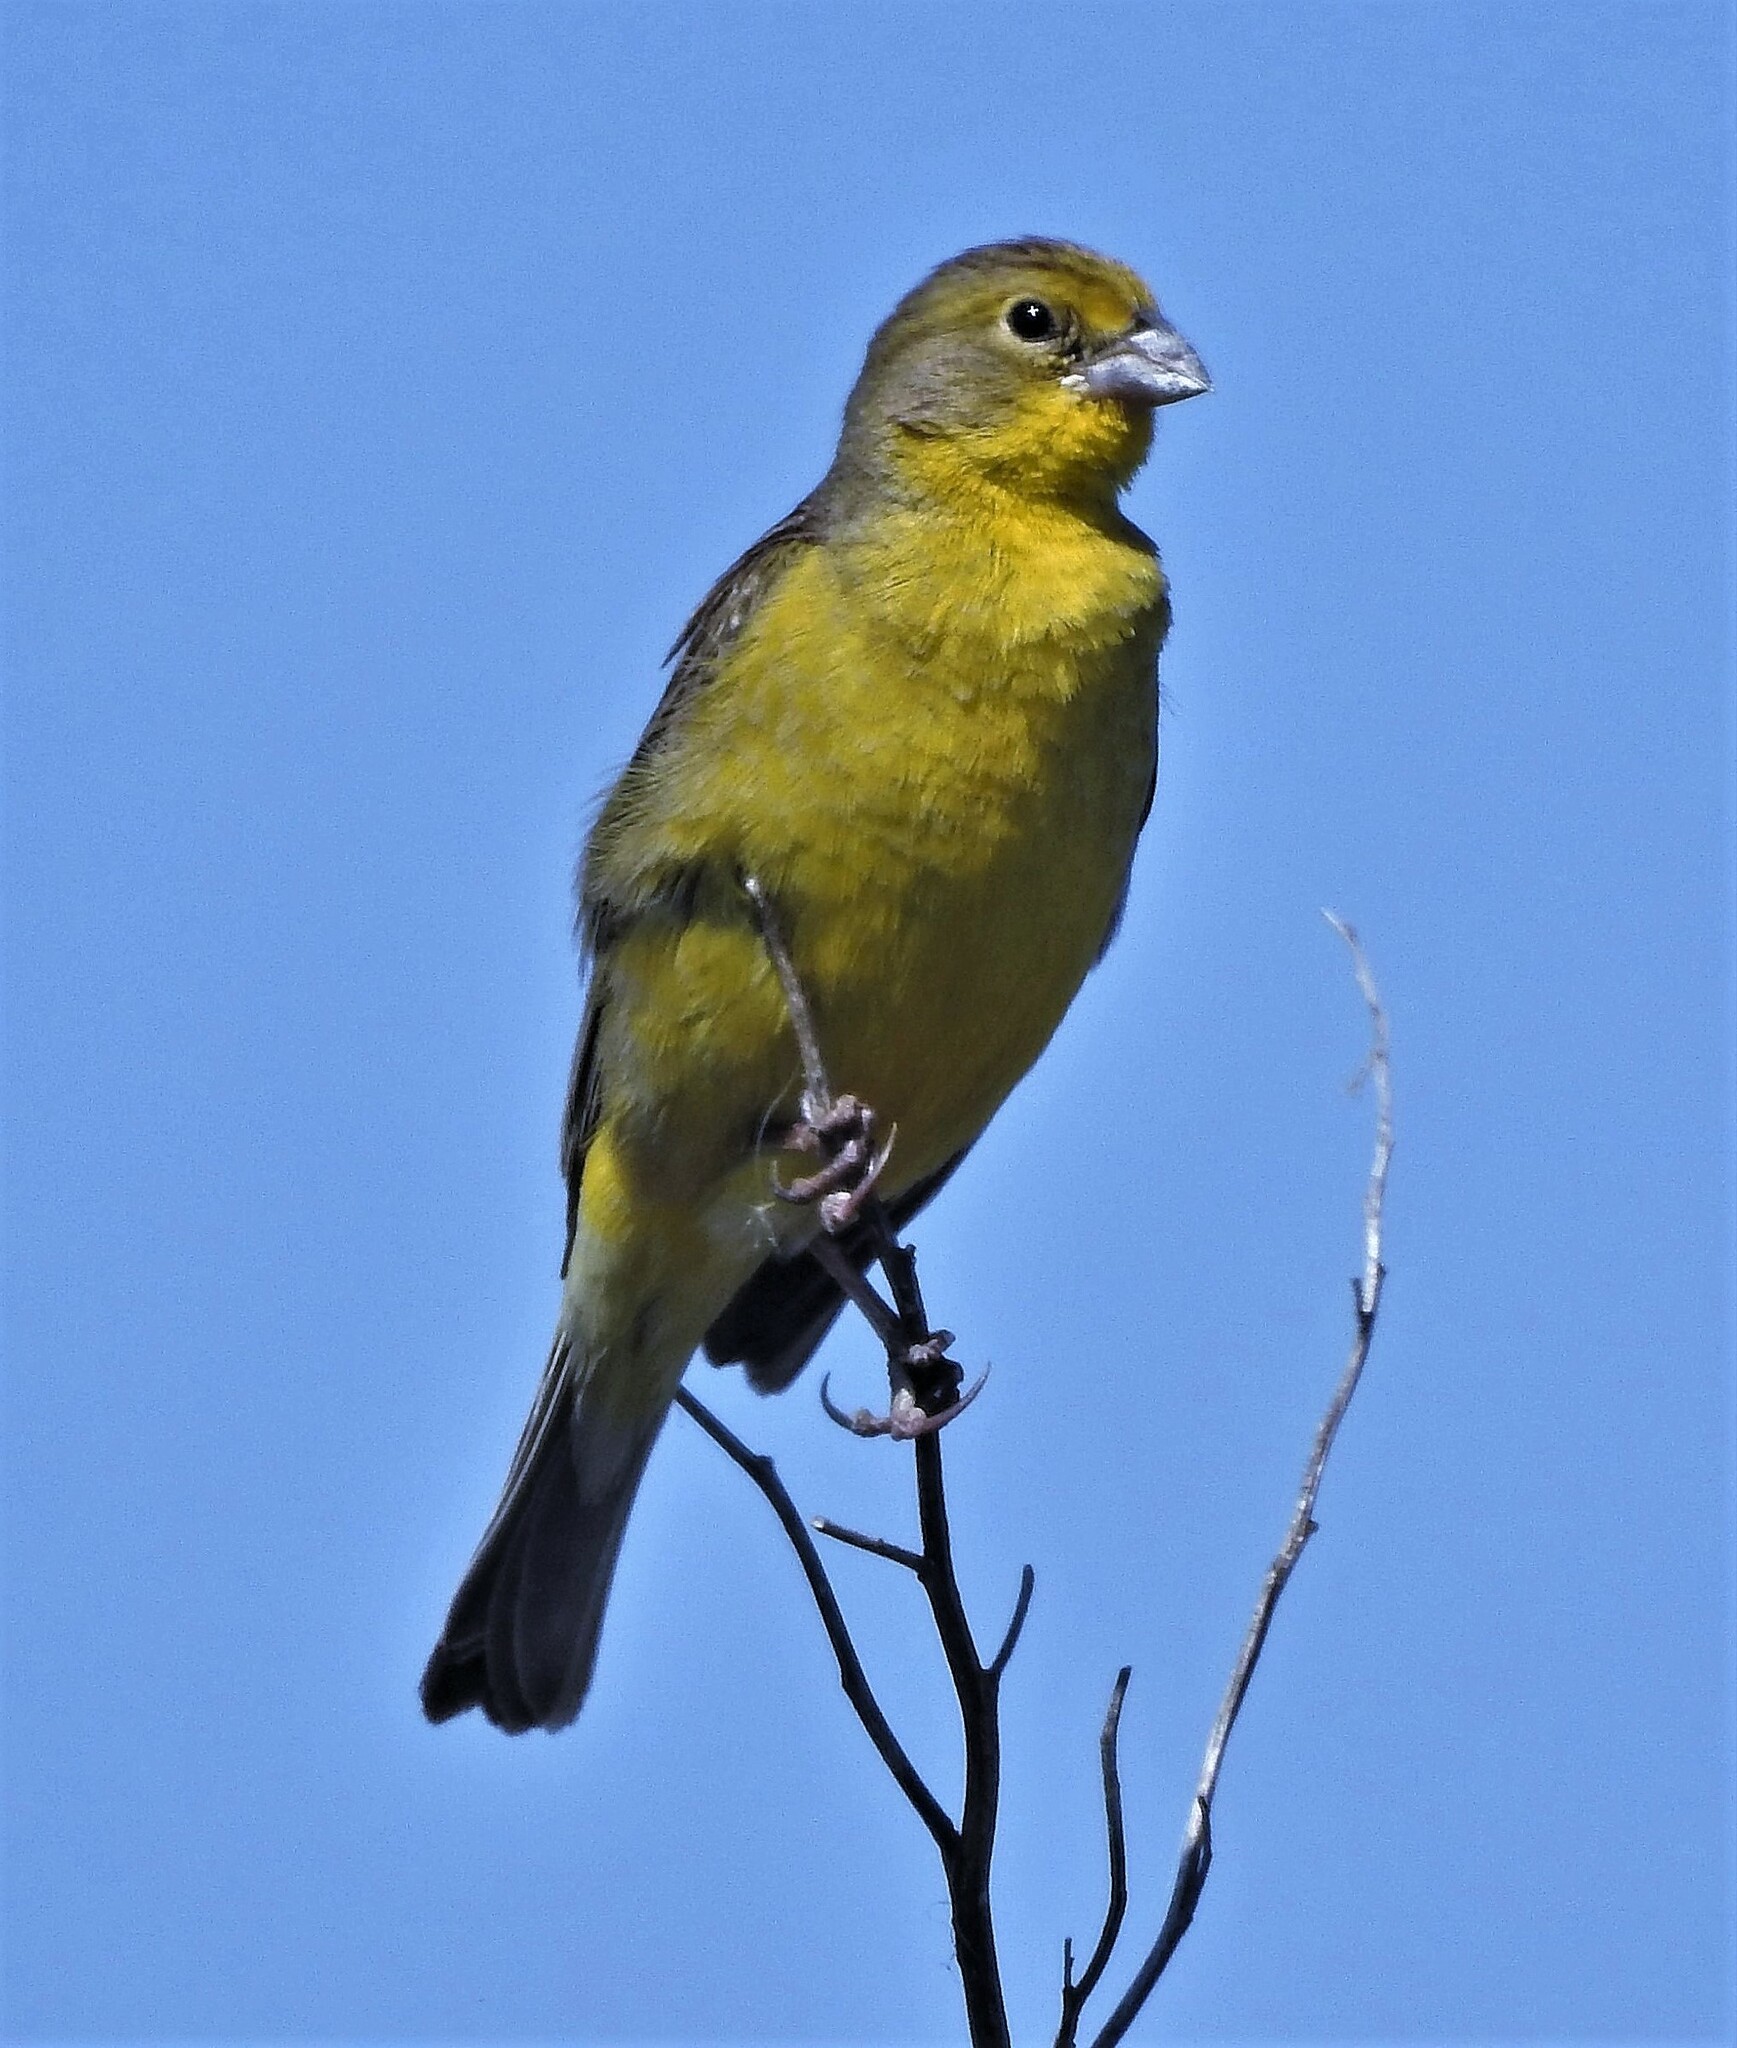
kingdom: Animalia
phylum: Chordata
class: Aves
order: Passeriformes
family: Thraupidae
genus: Sicalis
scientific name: Sicalis luteola
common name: Grassland yellow-finch
